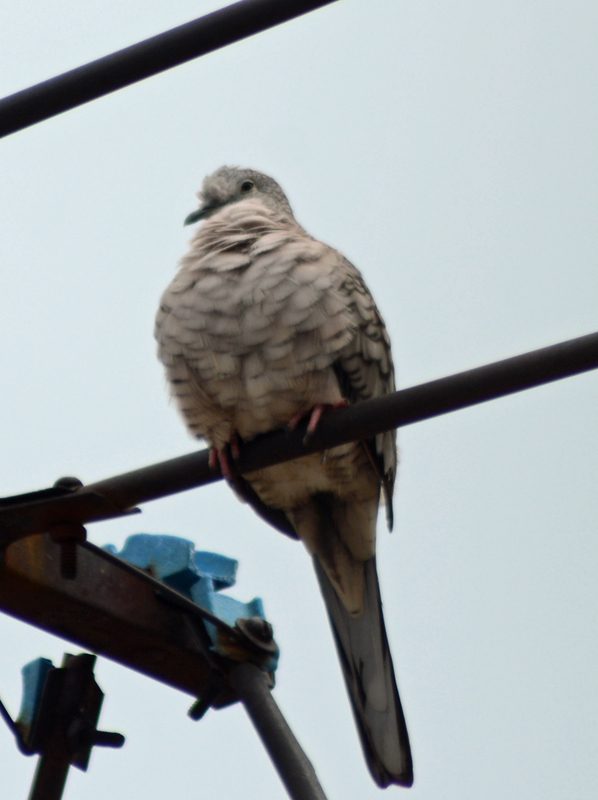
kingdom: Animalia
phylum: Chordata
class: Aves
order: Columbiformes
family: Columbidae
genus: Columbina
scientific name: Columbina inca
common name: Inca dove
